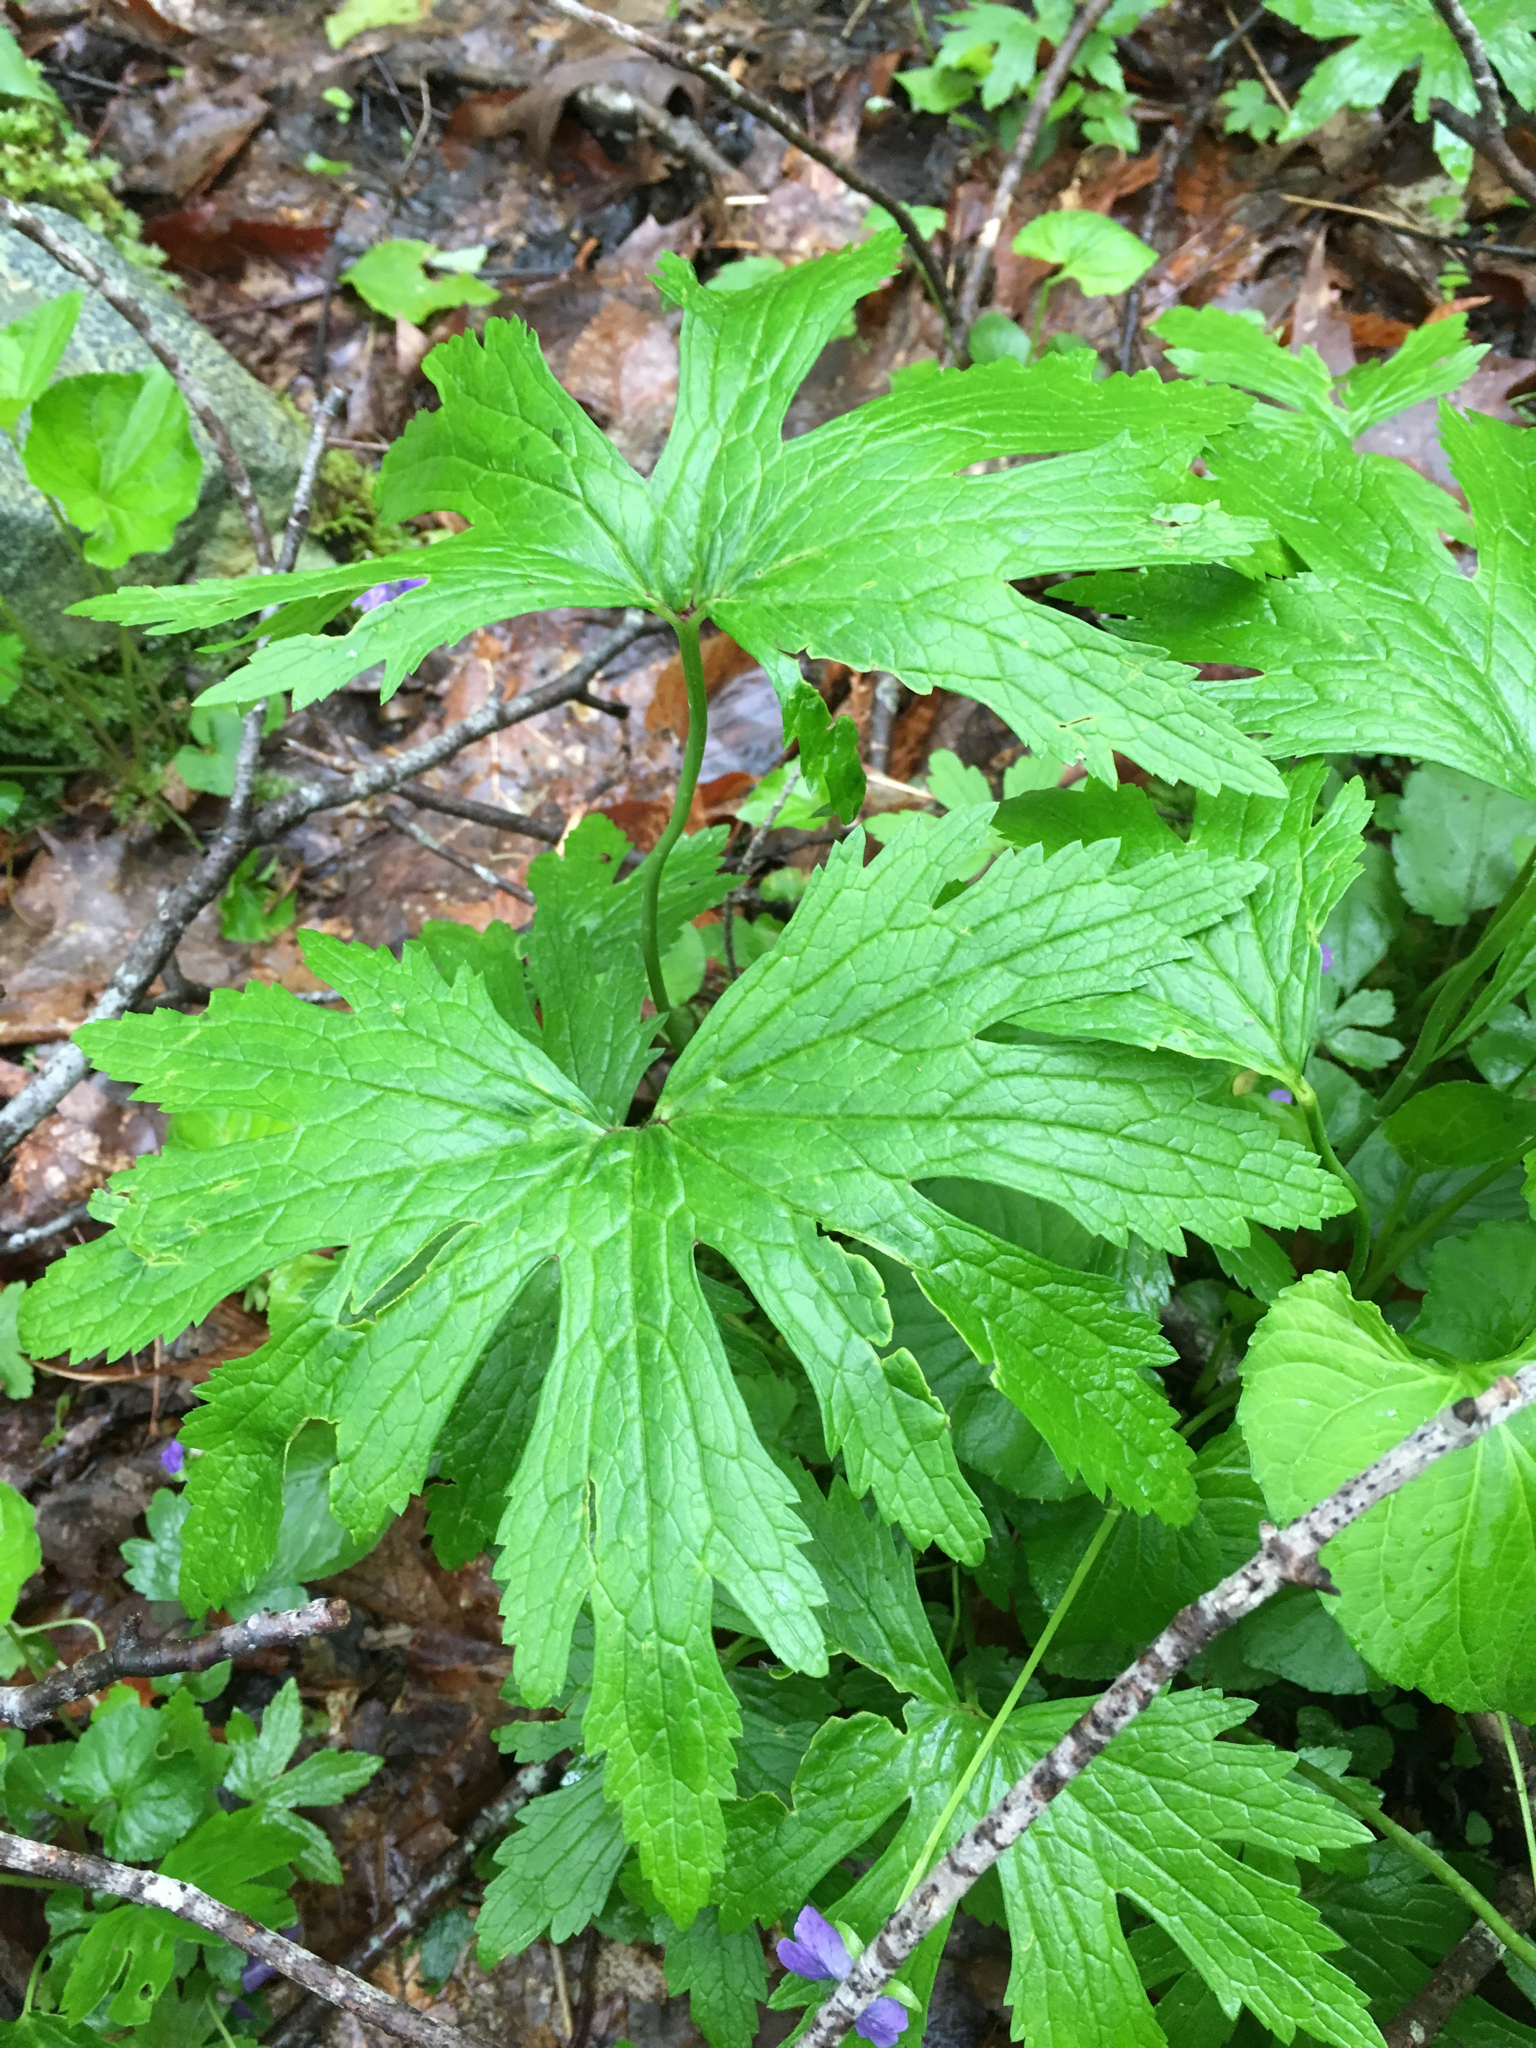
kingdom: Plantae
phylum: Tracheophyta
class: Magnoliopsida
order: Ranunculales
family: Ranunculaceae
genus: Trautvetteria
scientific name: Trautvetteria carolinensis
